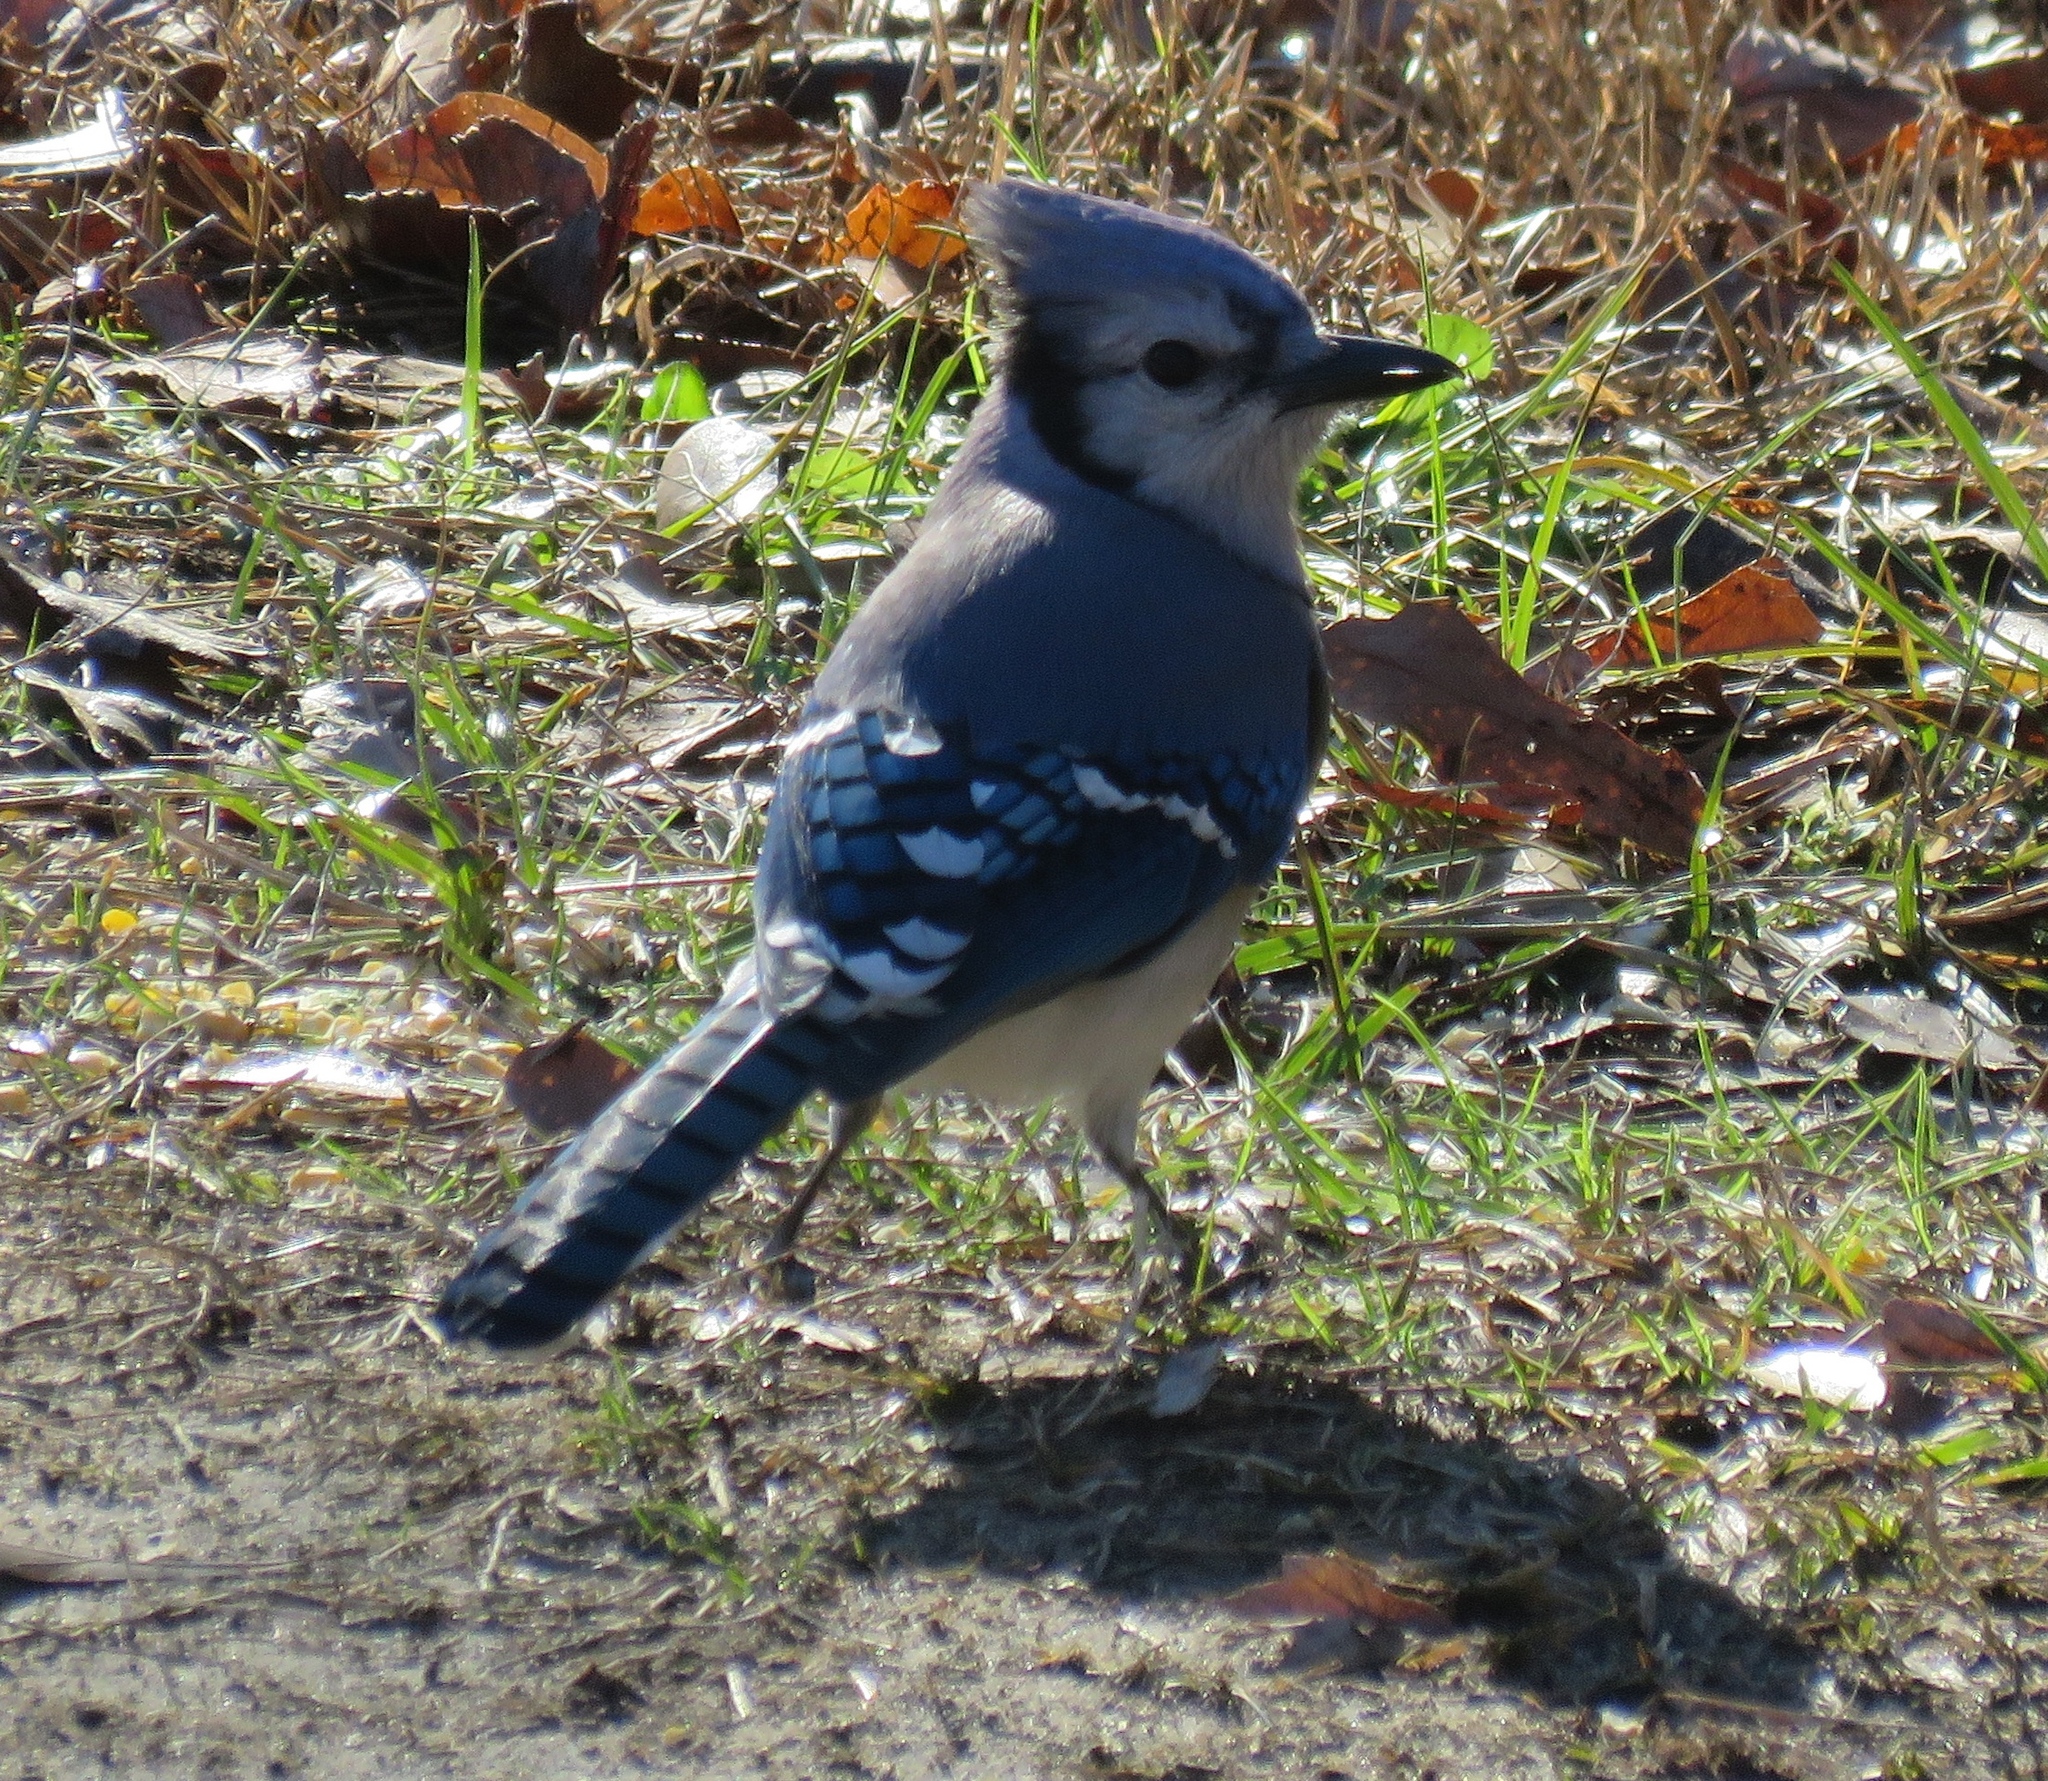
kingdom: Animalia
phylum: Chordata
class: Aves
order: Passeriformes
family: Corvidae
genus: Cyanocitta
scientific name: Cyanocitta cristata
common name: Blue jay
